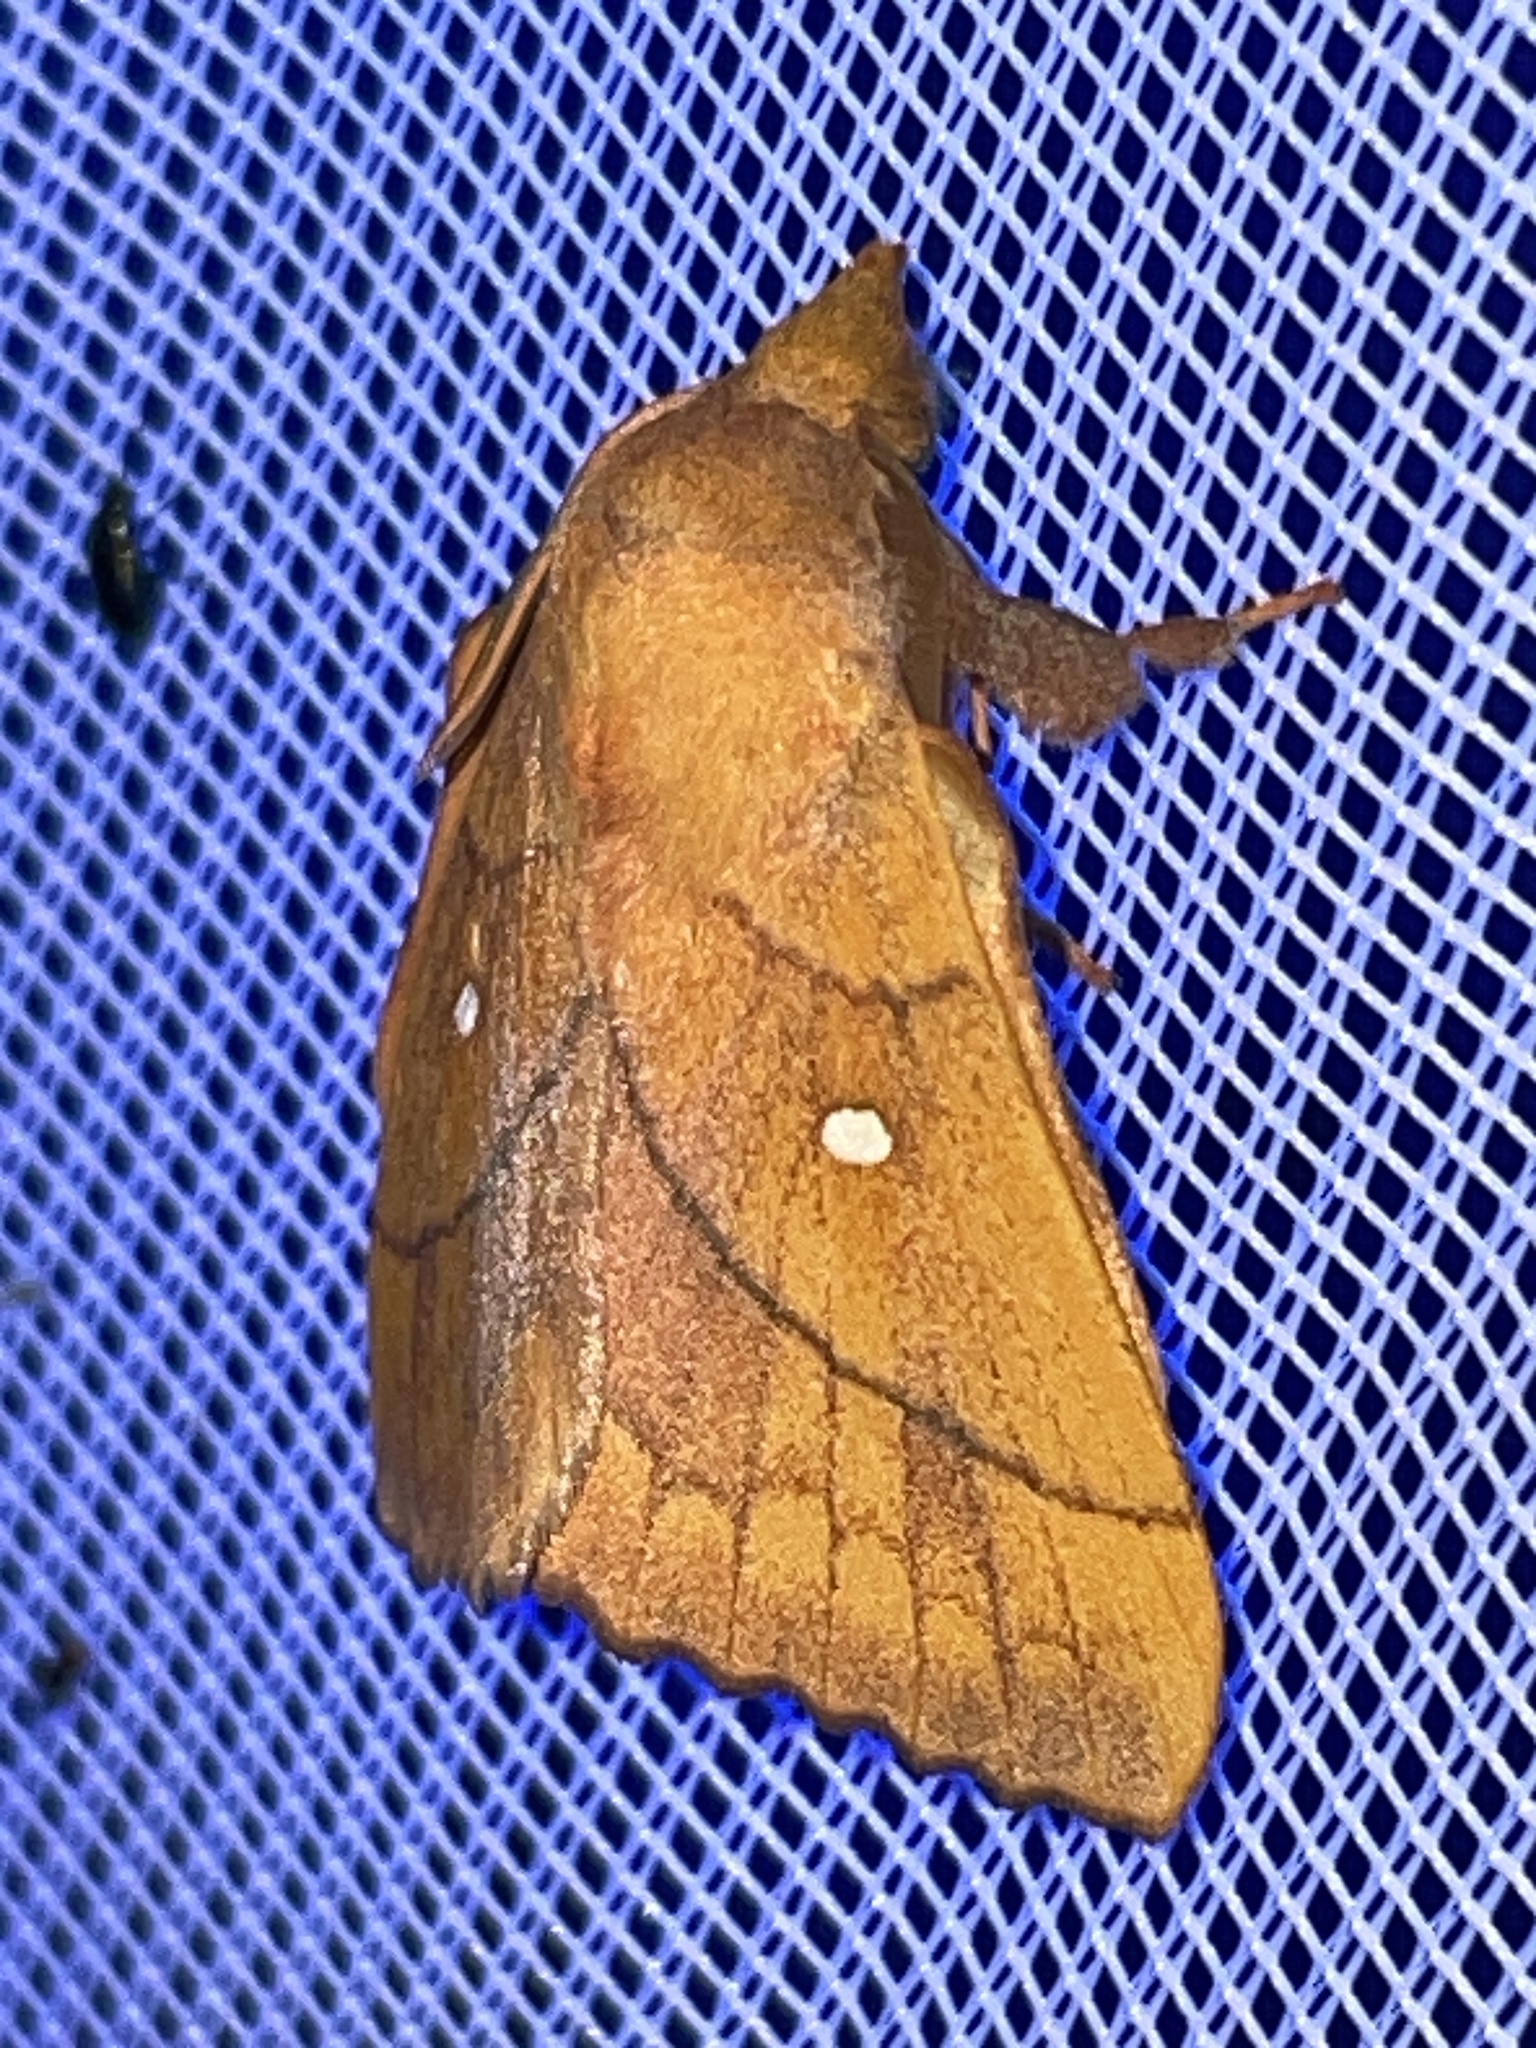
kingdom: Animalia
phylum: Arthropoda
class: Insecta
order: Lepidoptera
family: Lasiocampidae
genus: Odonestis
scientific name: Odonestis pruni
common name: Plum lappet
